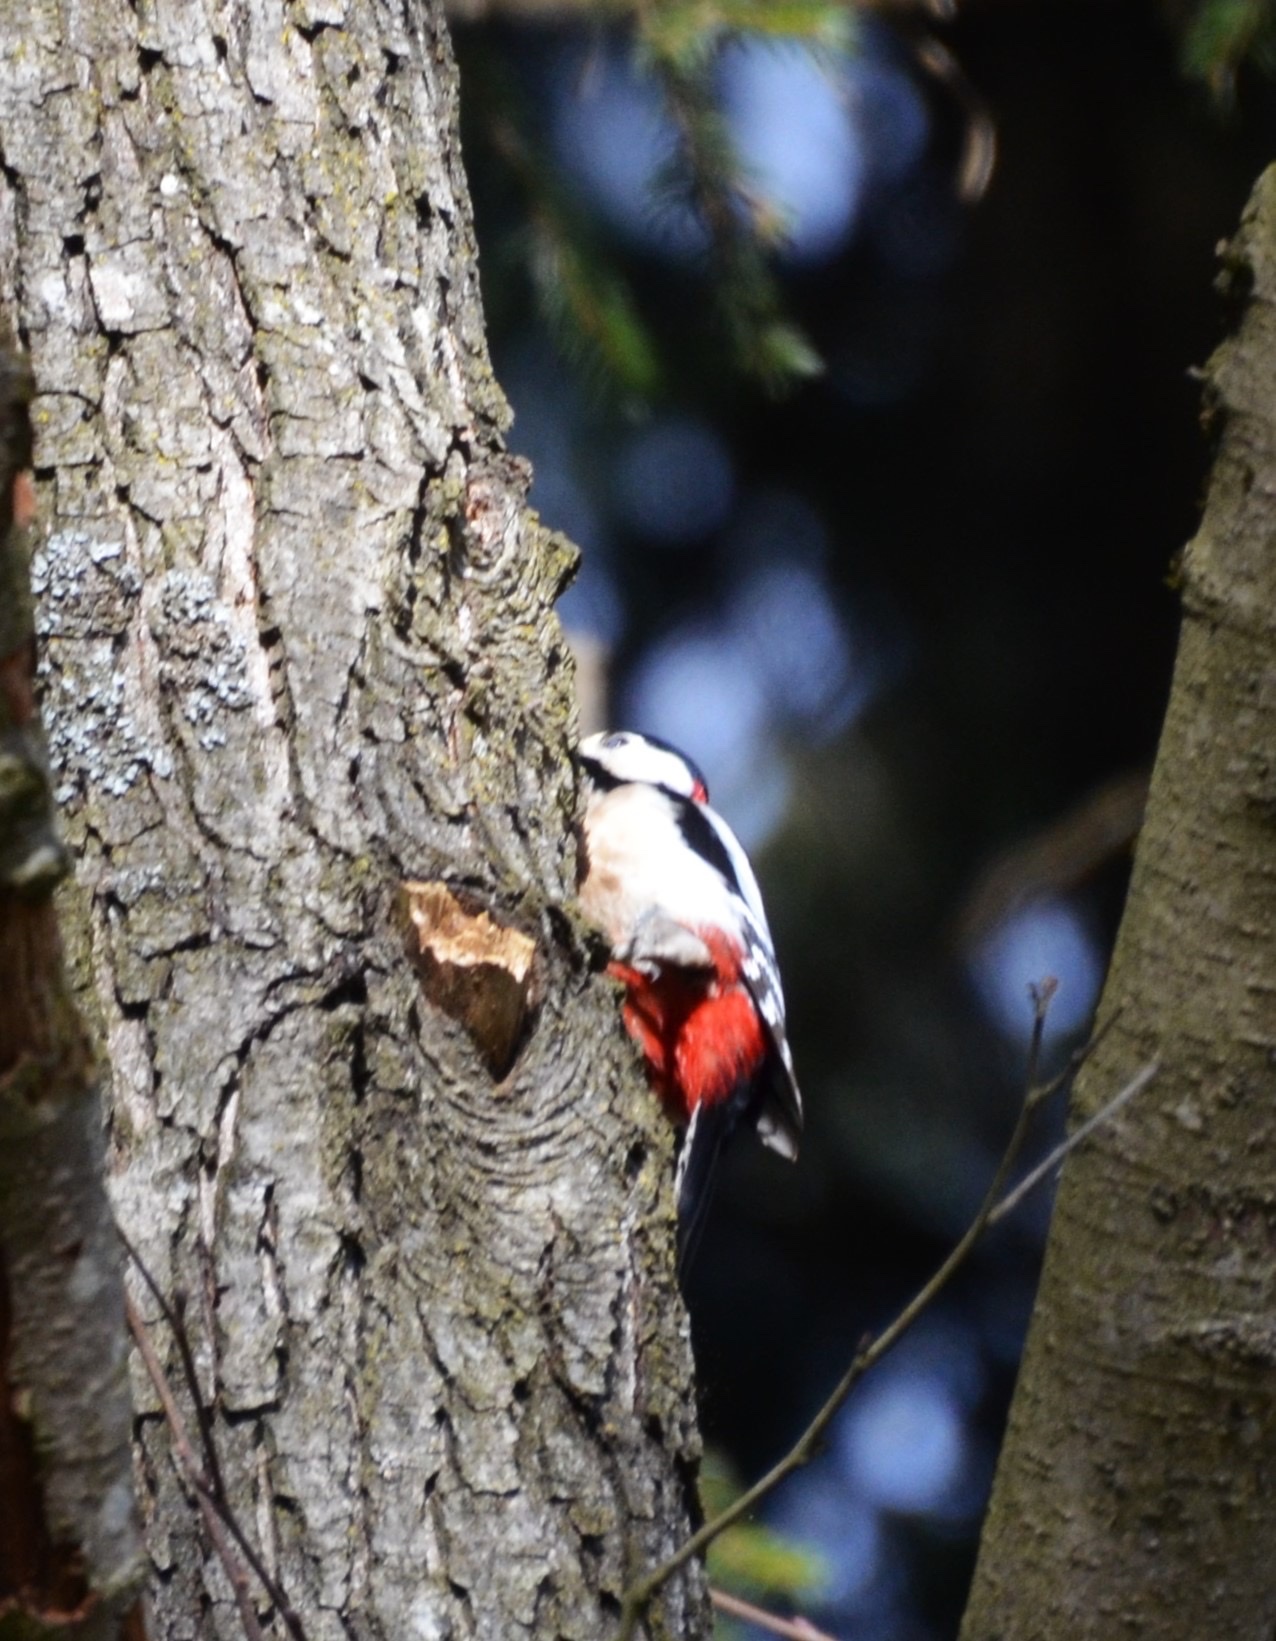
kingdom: Animalia
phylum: Chordata
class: Aves
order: Piciformes
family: Picidae
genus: Dendrocopos
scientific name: Dendrocopos major
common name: Great spotted woodpecker
